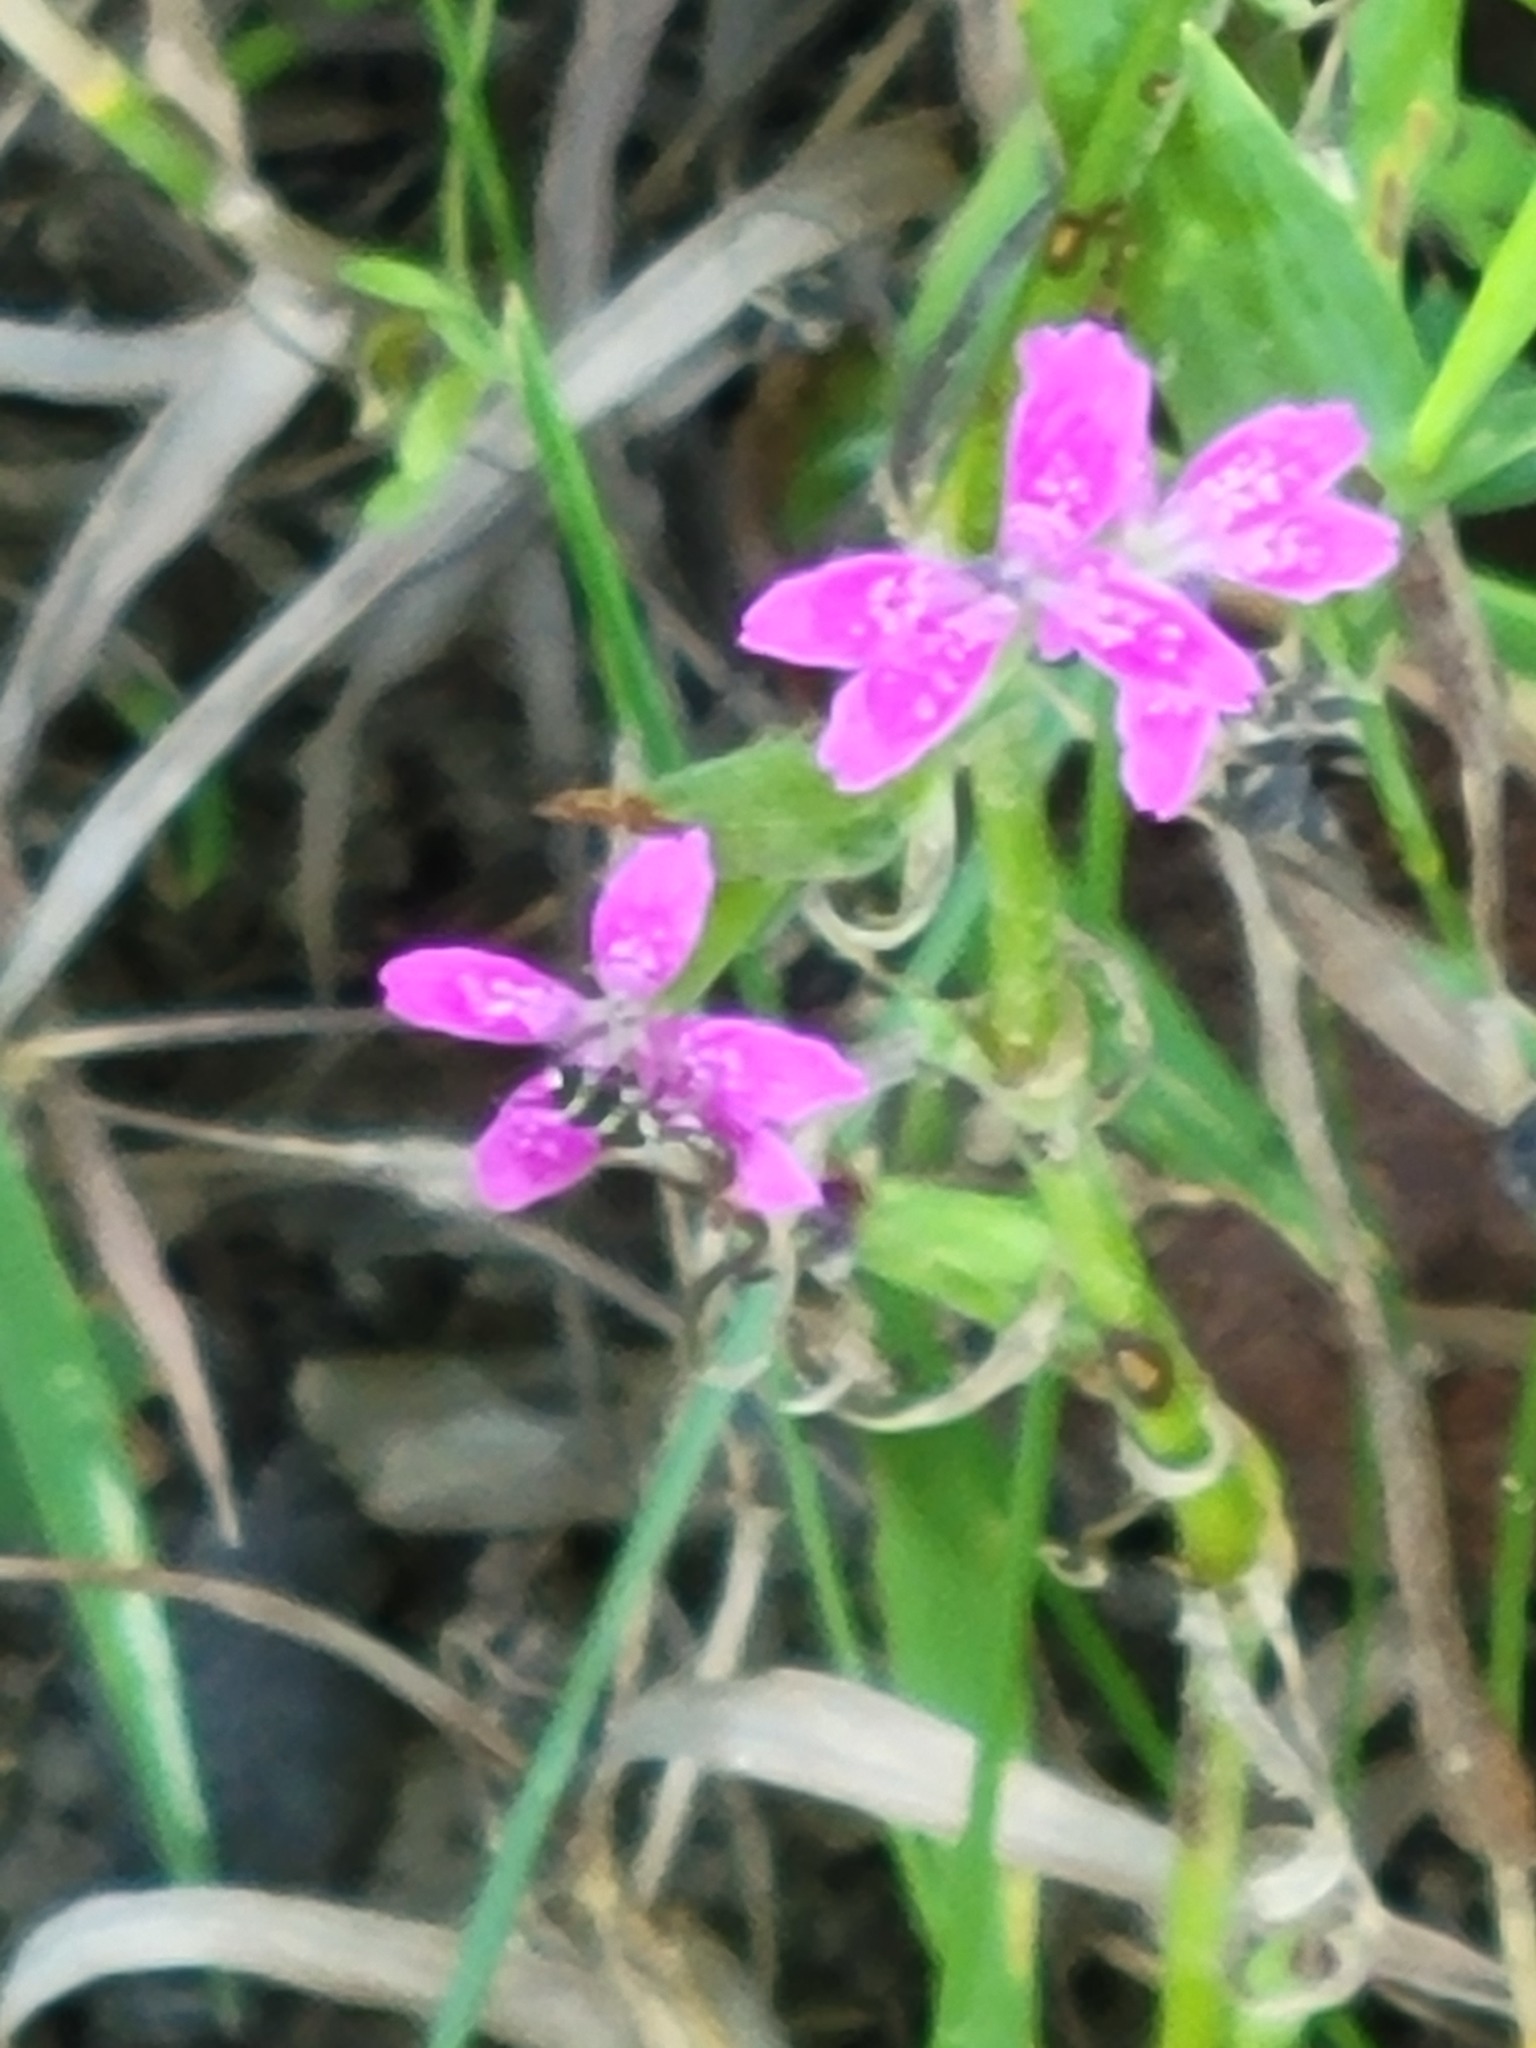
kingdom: Plantae
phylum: Tracheophyta
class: Magnoliopsida
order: Caryophyllales
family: Caryophyllaceae
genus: Dianthus
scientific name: Dianthus armeria
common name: Deptford pink
